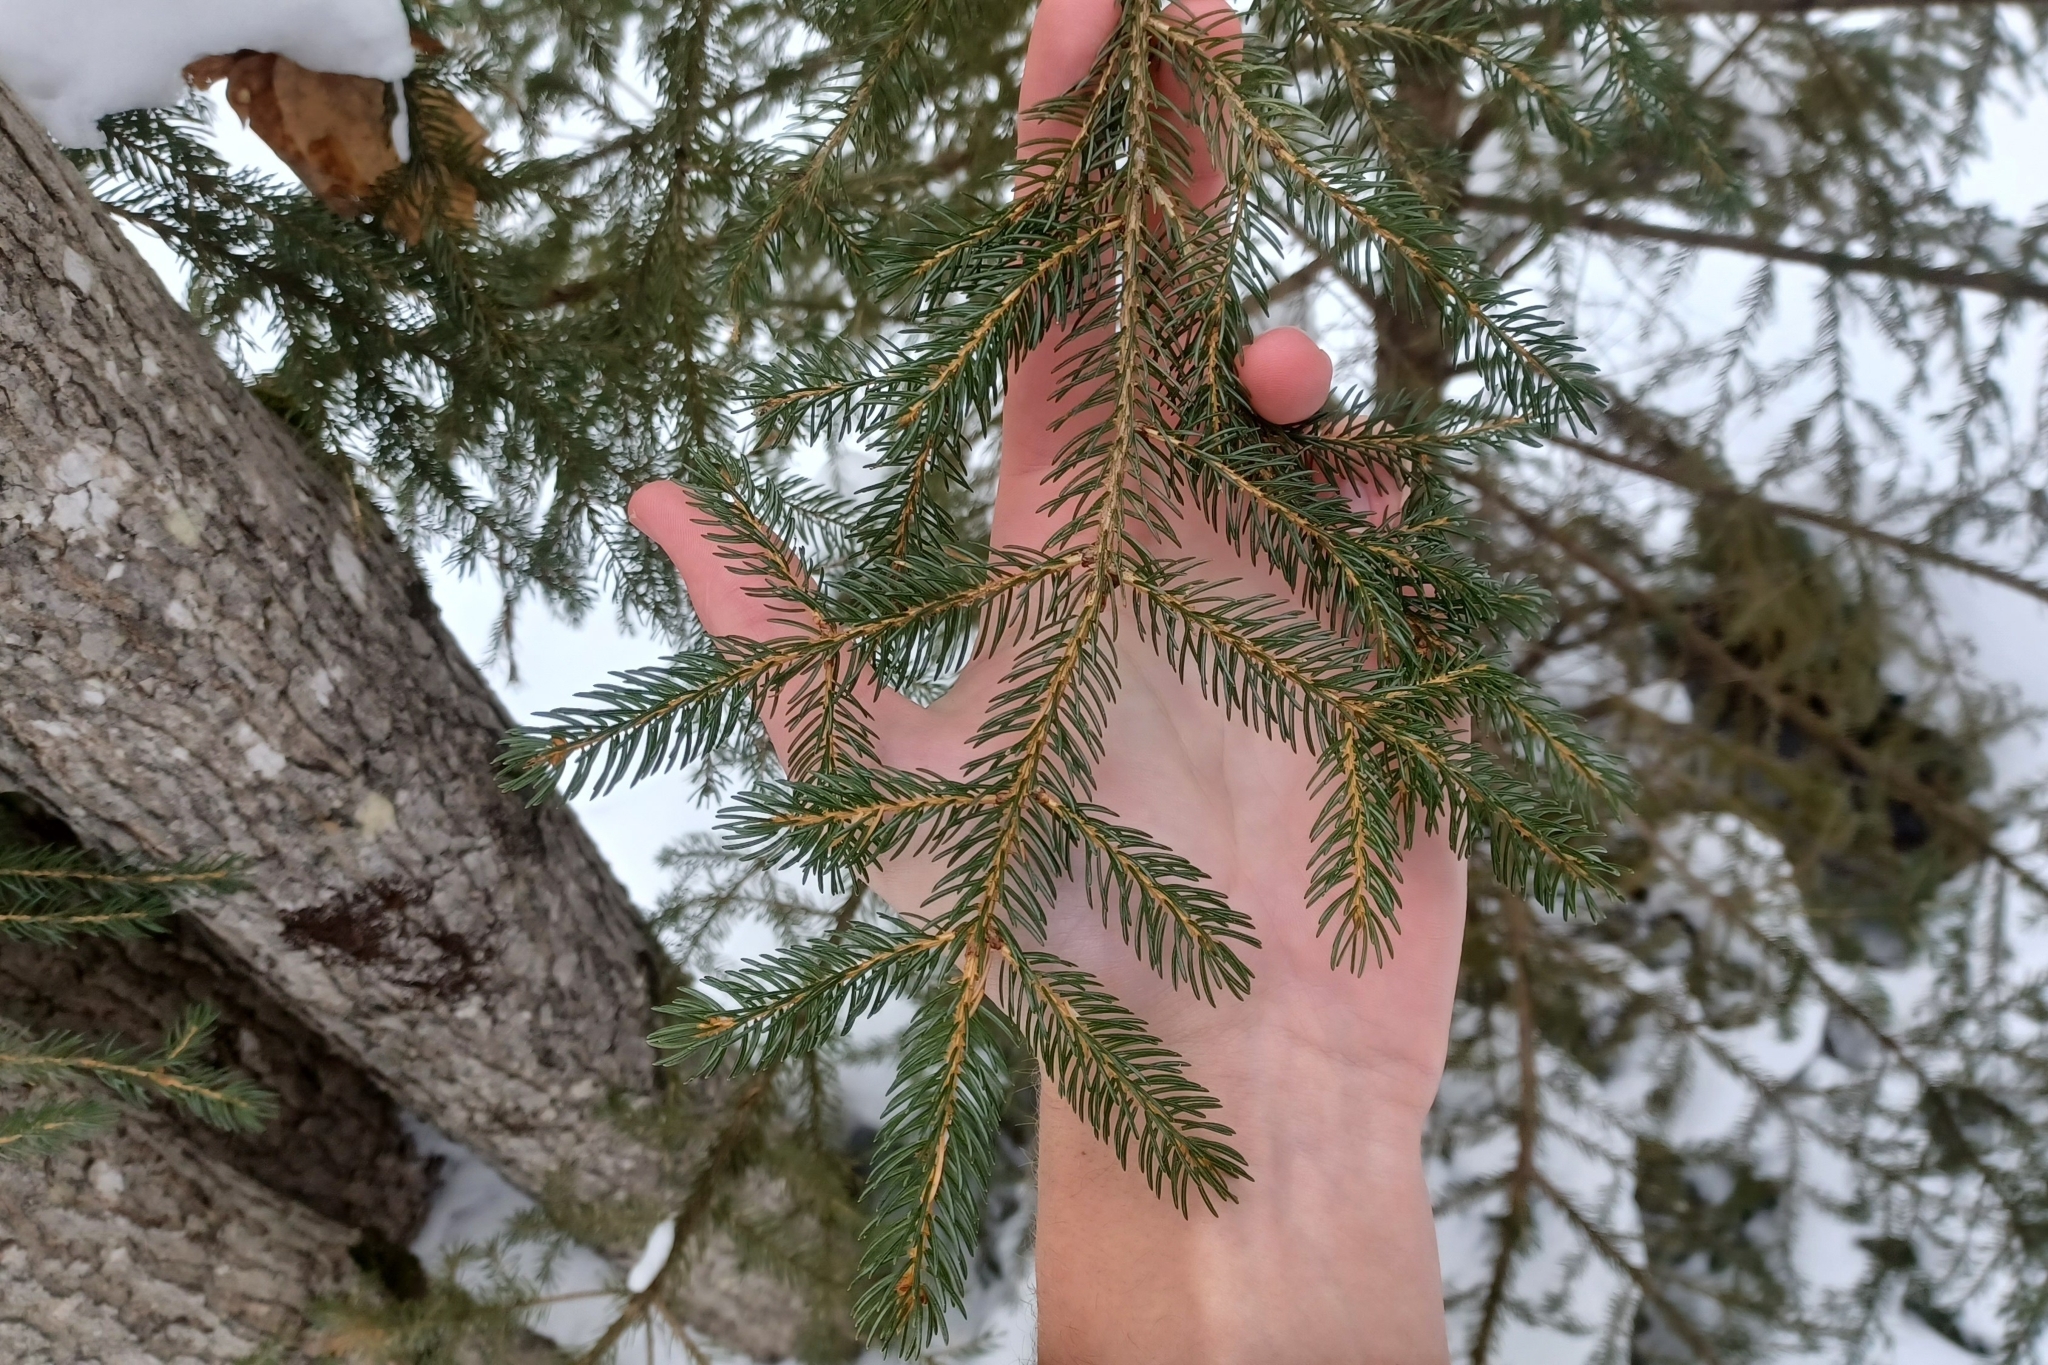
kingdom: Plantae
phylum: Tracheophyta
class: Pinopsida
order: Pinales
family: Pinaceae
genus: Picea
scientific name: Picea rubens
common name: Red spruce
